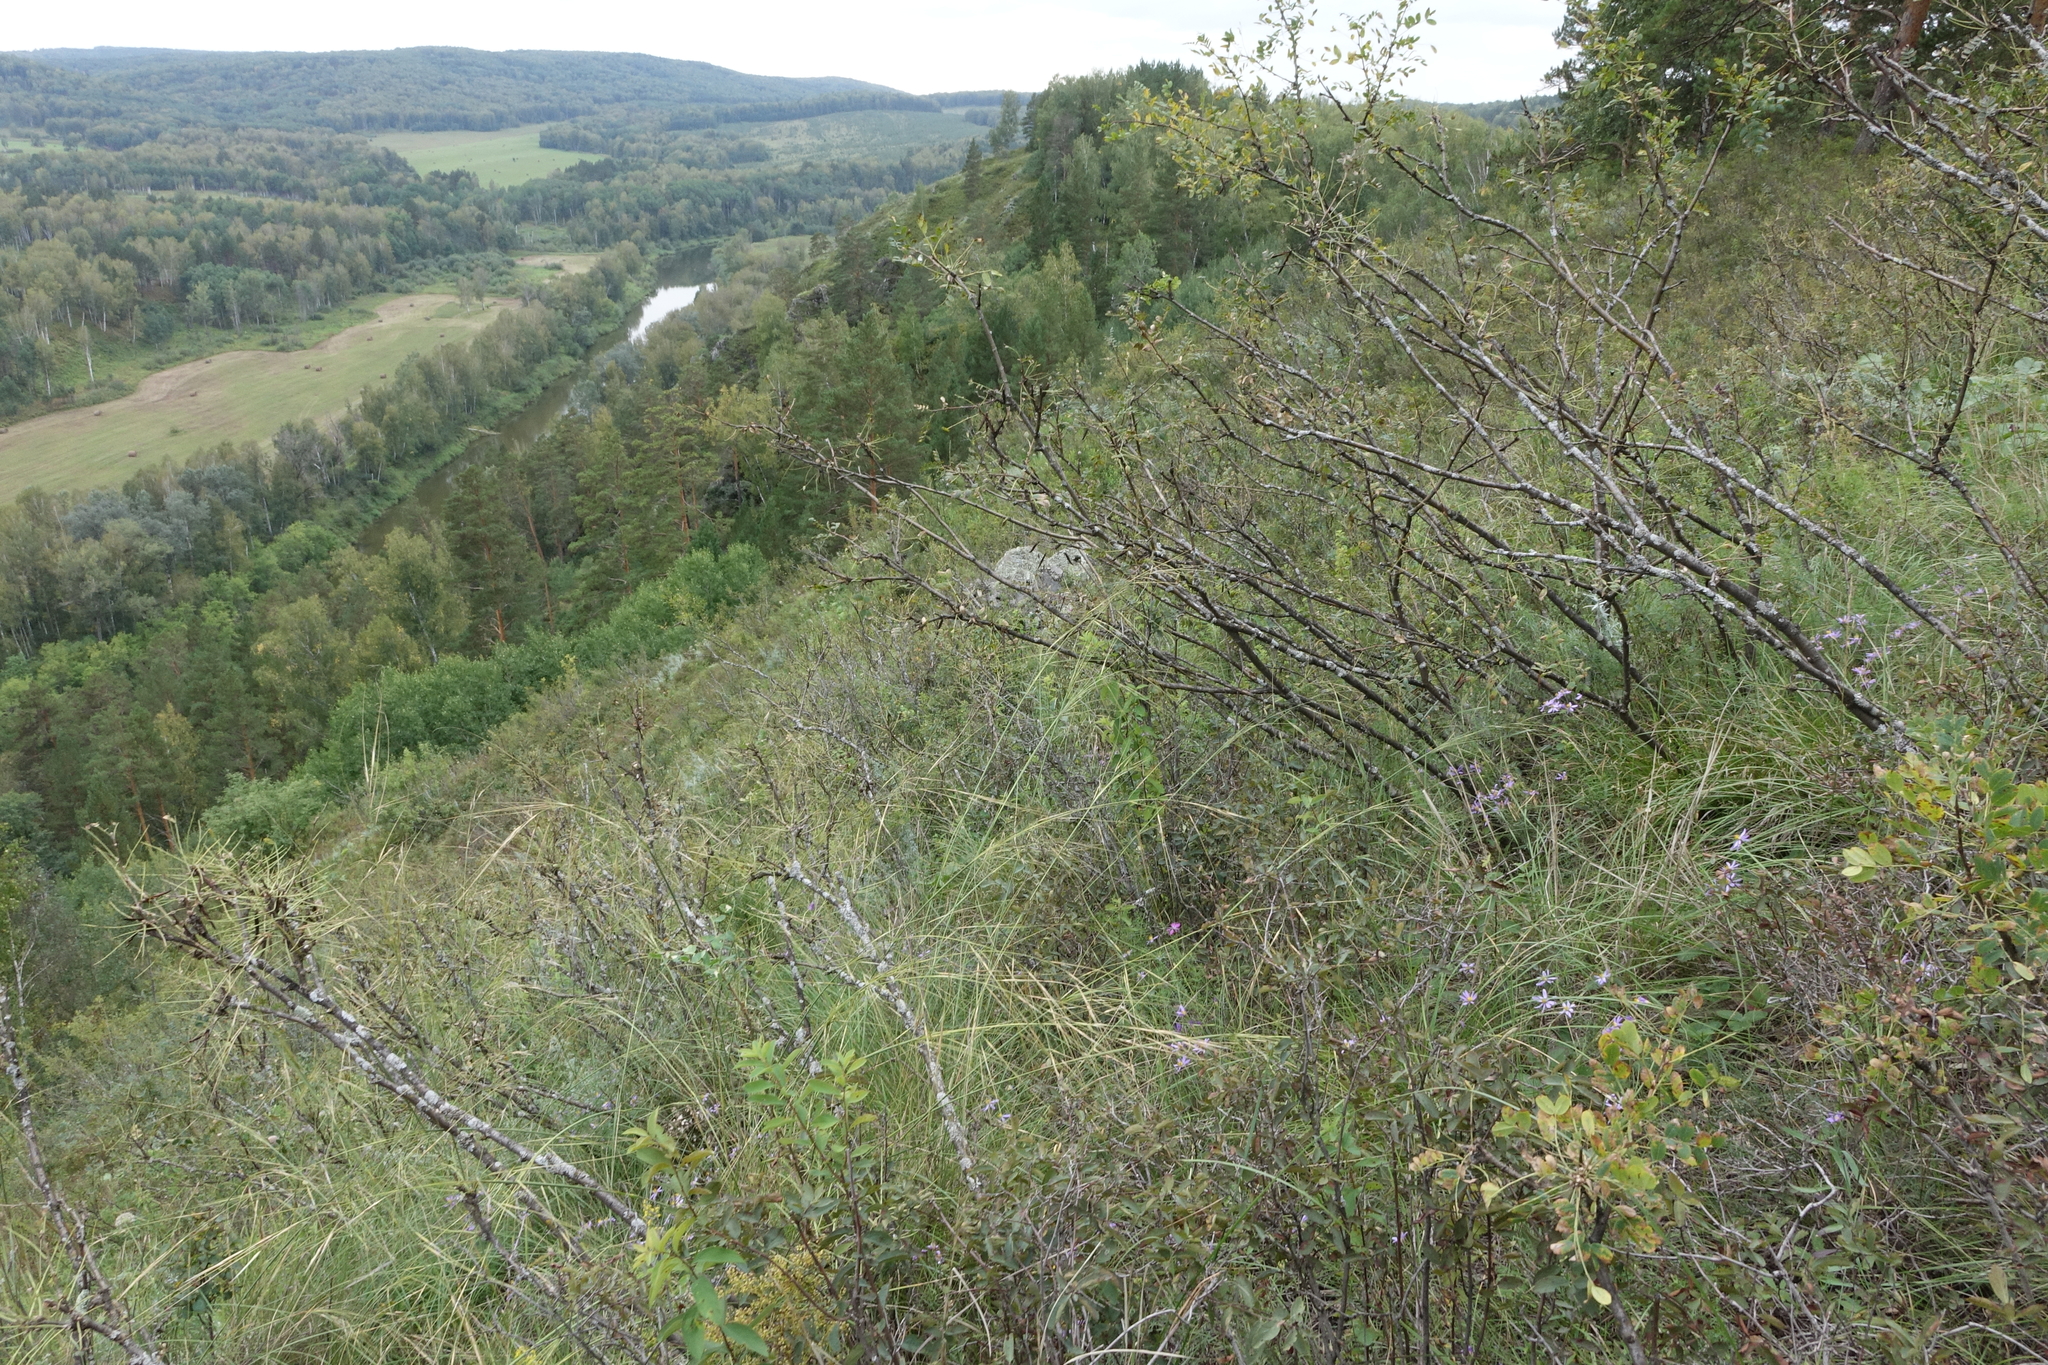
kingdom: Plantae
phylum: Tracheophyta
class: Magnoliopsida
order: Fabales
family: Fabaceae
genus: Caragana
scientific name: Caragana arborescens
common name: Siberian peashrub
